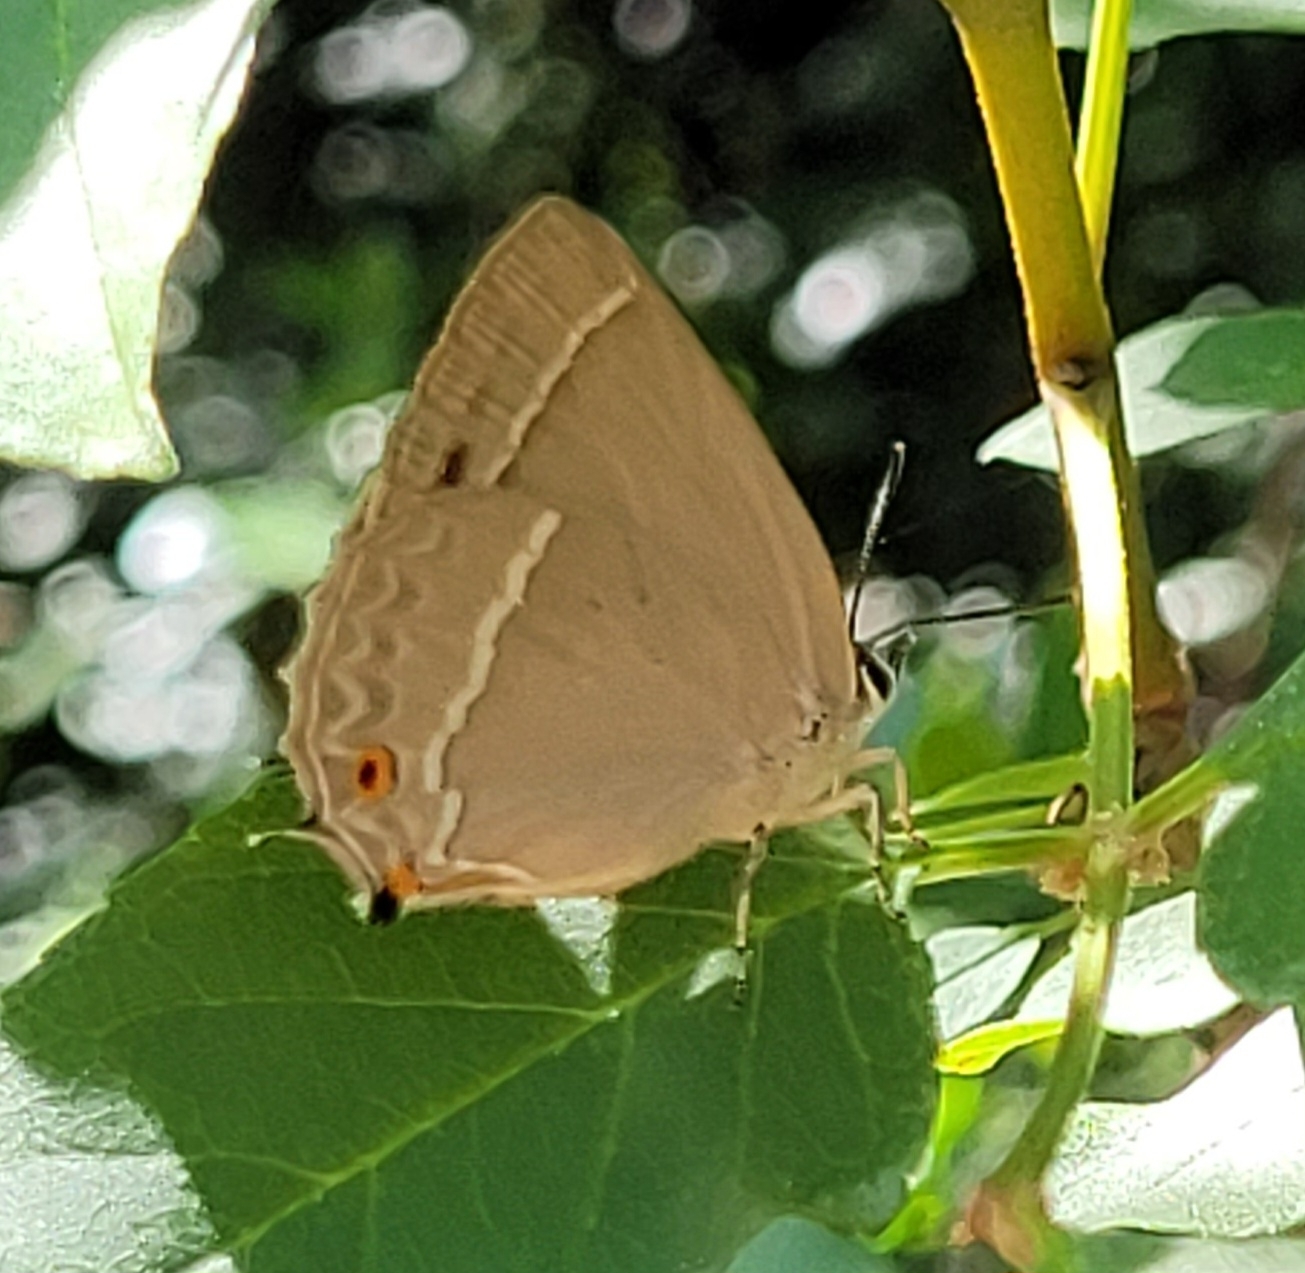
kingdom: Animalia
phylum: Arthropoda
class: Insecta
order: Lepidoptera
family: Lycaenidae
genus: Quercusia
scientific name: Quercusia quercus
